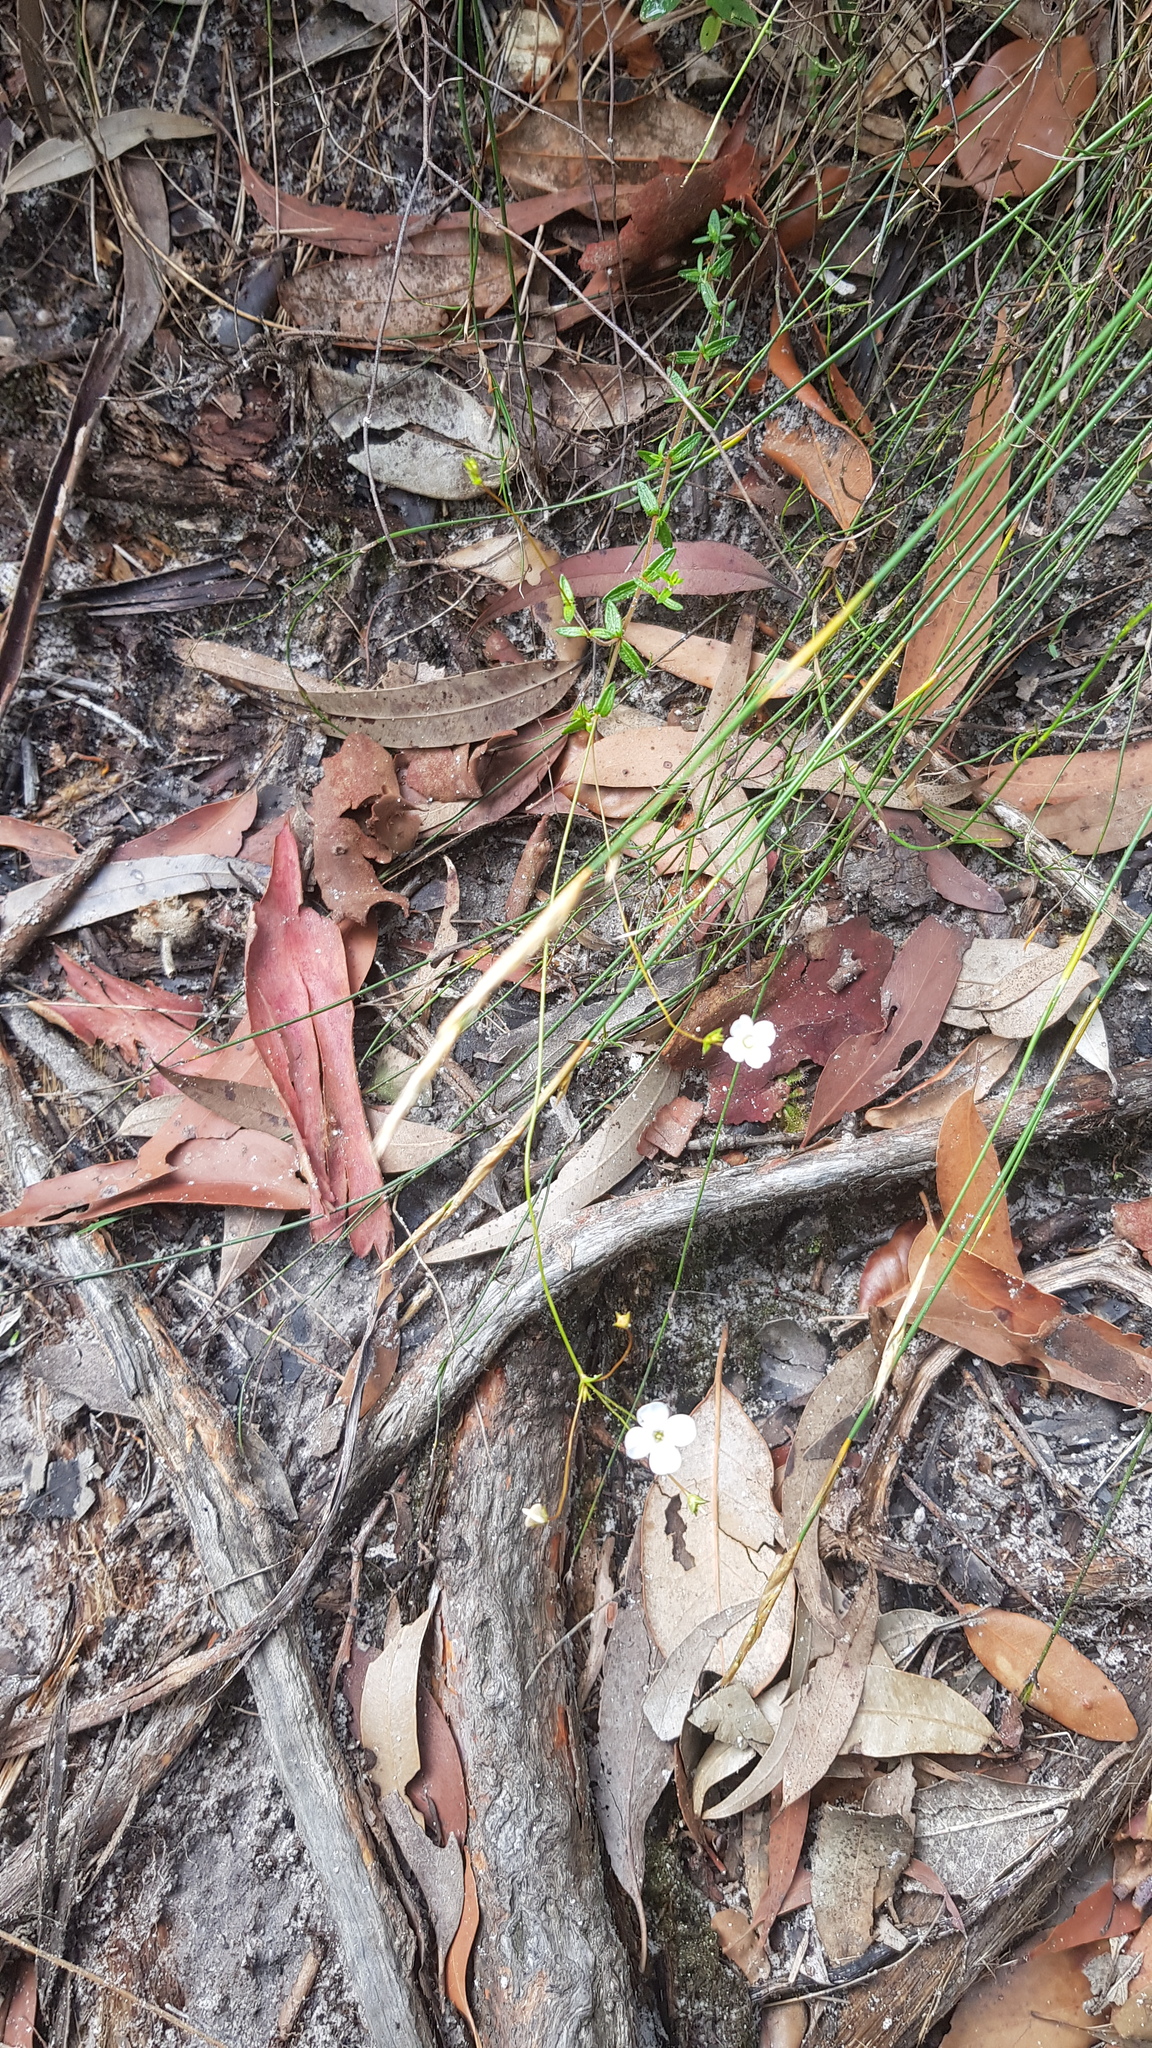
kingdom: Plantae
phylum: Tracheophyta
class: Magnoliopsida
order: Gentianales
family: Loganiaceae
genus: Mitrasacme
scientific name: Mitrasacme polymorpha
